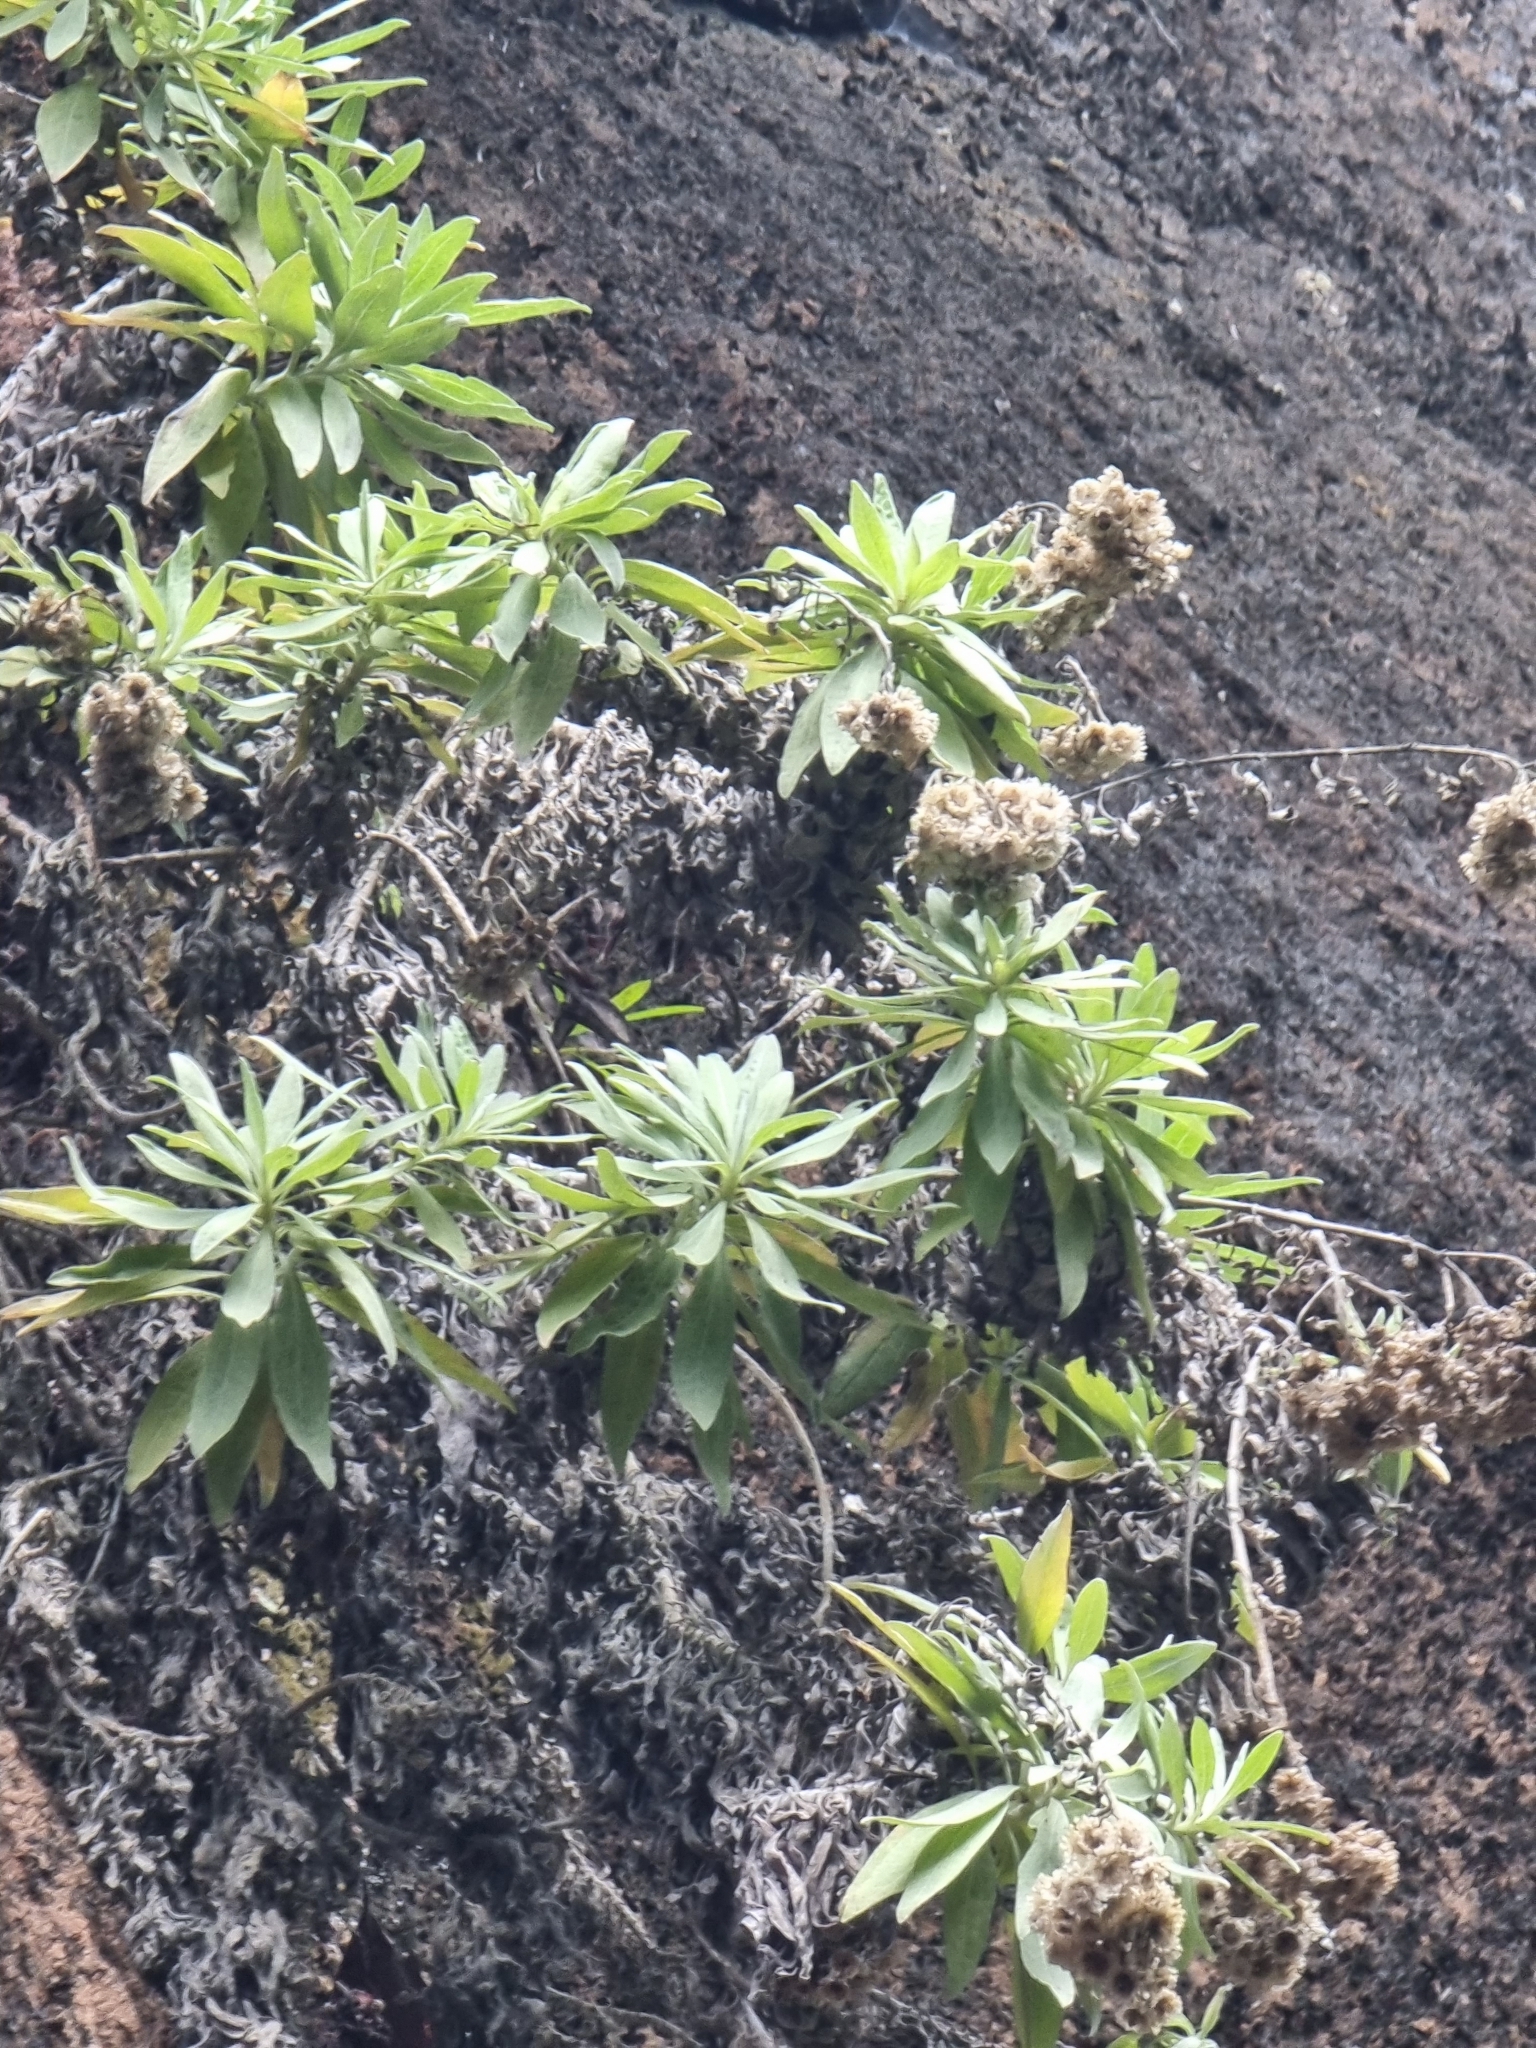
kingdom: Plantae
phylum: Tracheophyta
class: Magnoliopsida
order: Asterales
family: Asteraceae
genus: Helichrysum
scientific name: Helichrysum melaleucum
